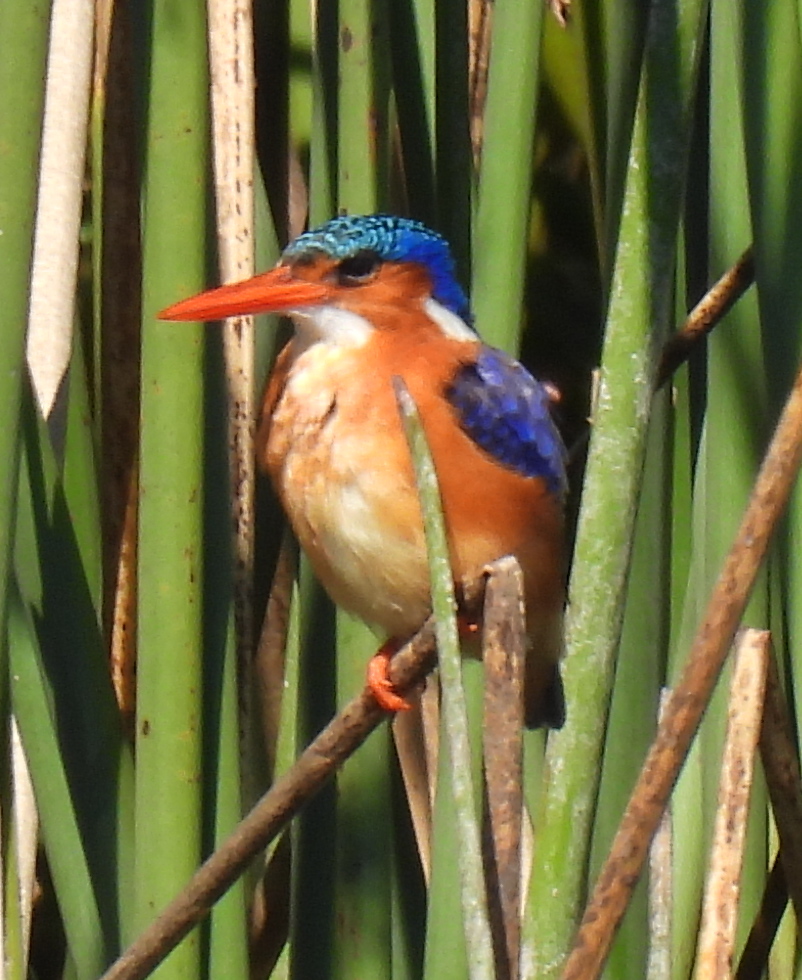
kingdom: Animalia
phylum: Chordata
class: Aves
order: Coraciiformes
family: Alcedinidae
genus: Corythornis
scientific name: Corythornis cristatus
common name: Malachite kingfisher
